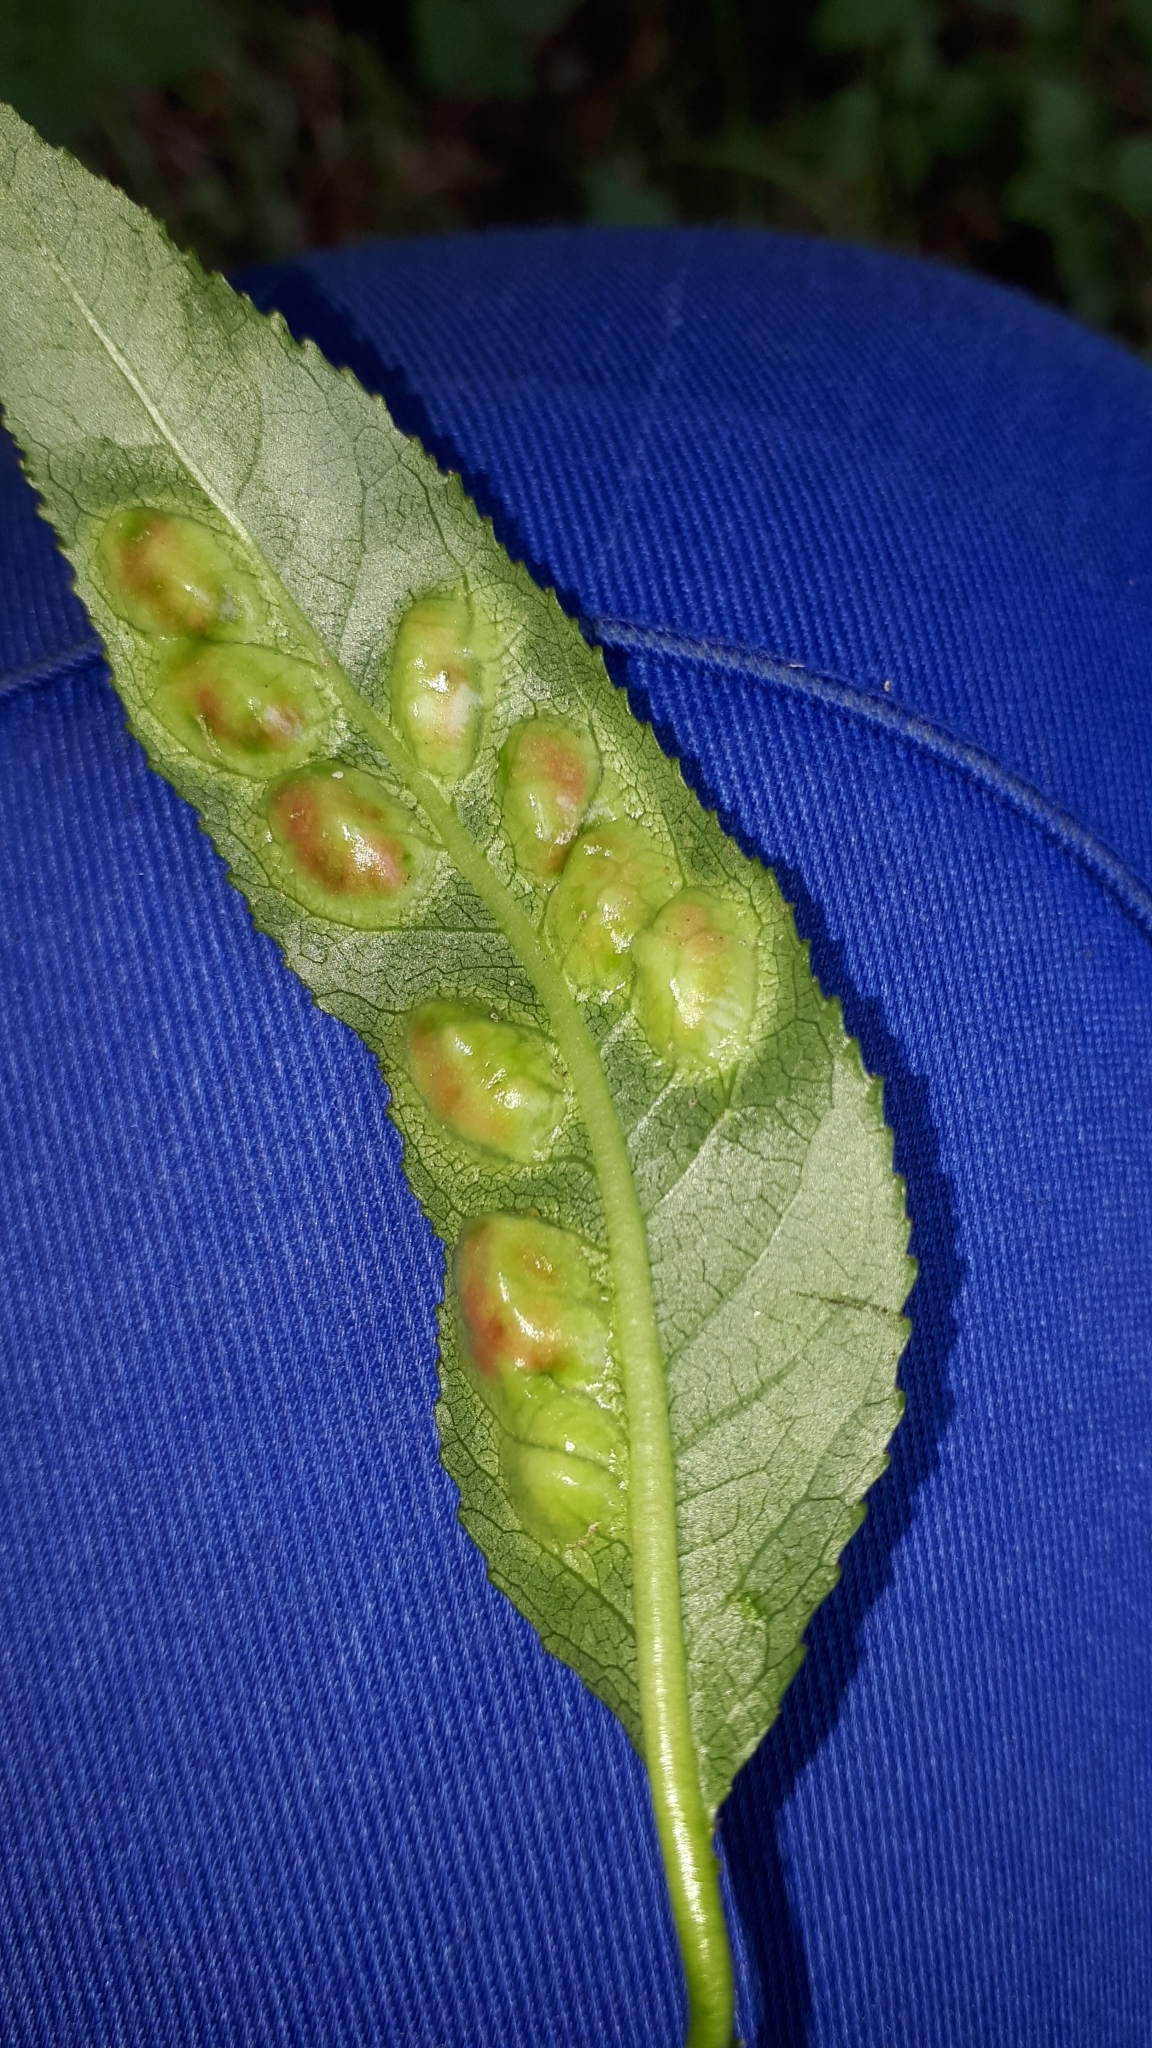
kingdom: Animalia
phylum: Arthropoda
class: Insecta
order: Hymenoptera
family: Tenthredinidae
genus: Pontania
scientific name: Pontania proxima
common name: Common sawfly
